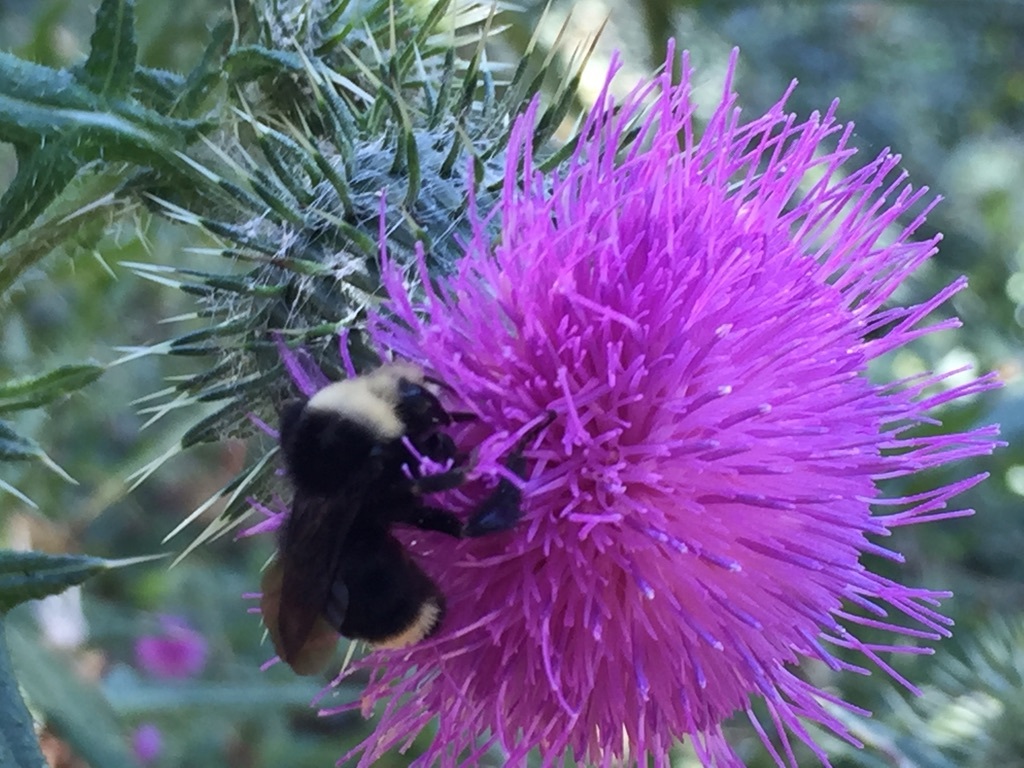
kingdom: Animalia
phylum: Arthropoda
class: Insecta
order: Hymenoptera
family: Apidae
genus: Bombus
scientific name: Bombus vosnesenskii
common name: Vosnesensky bumble bee
